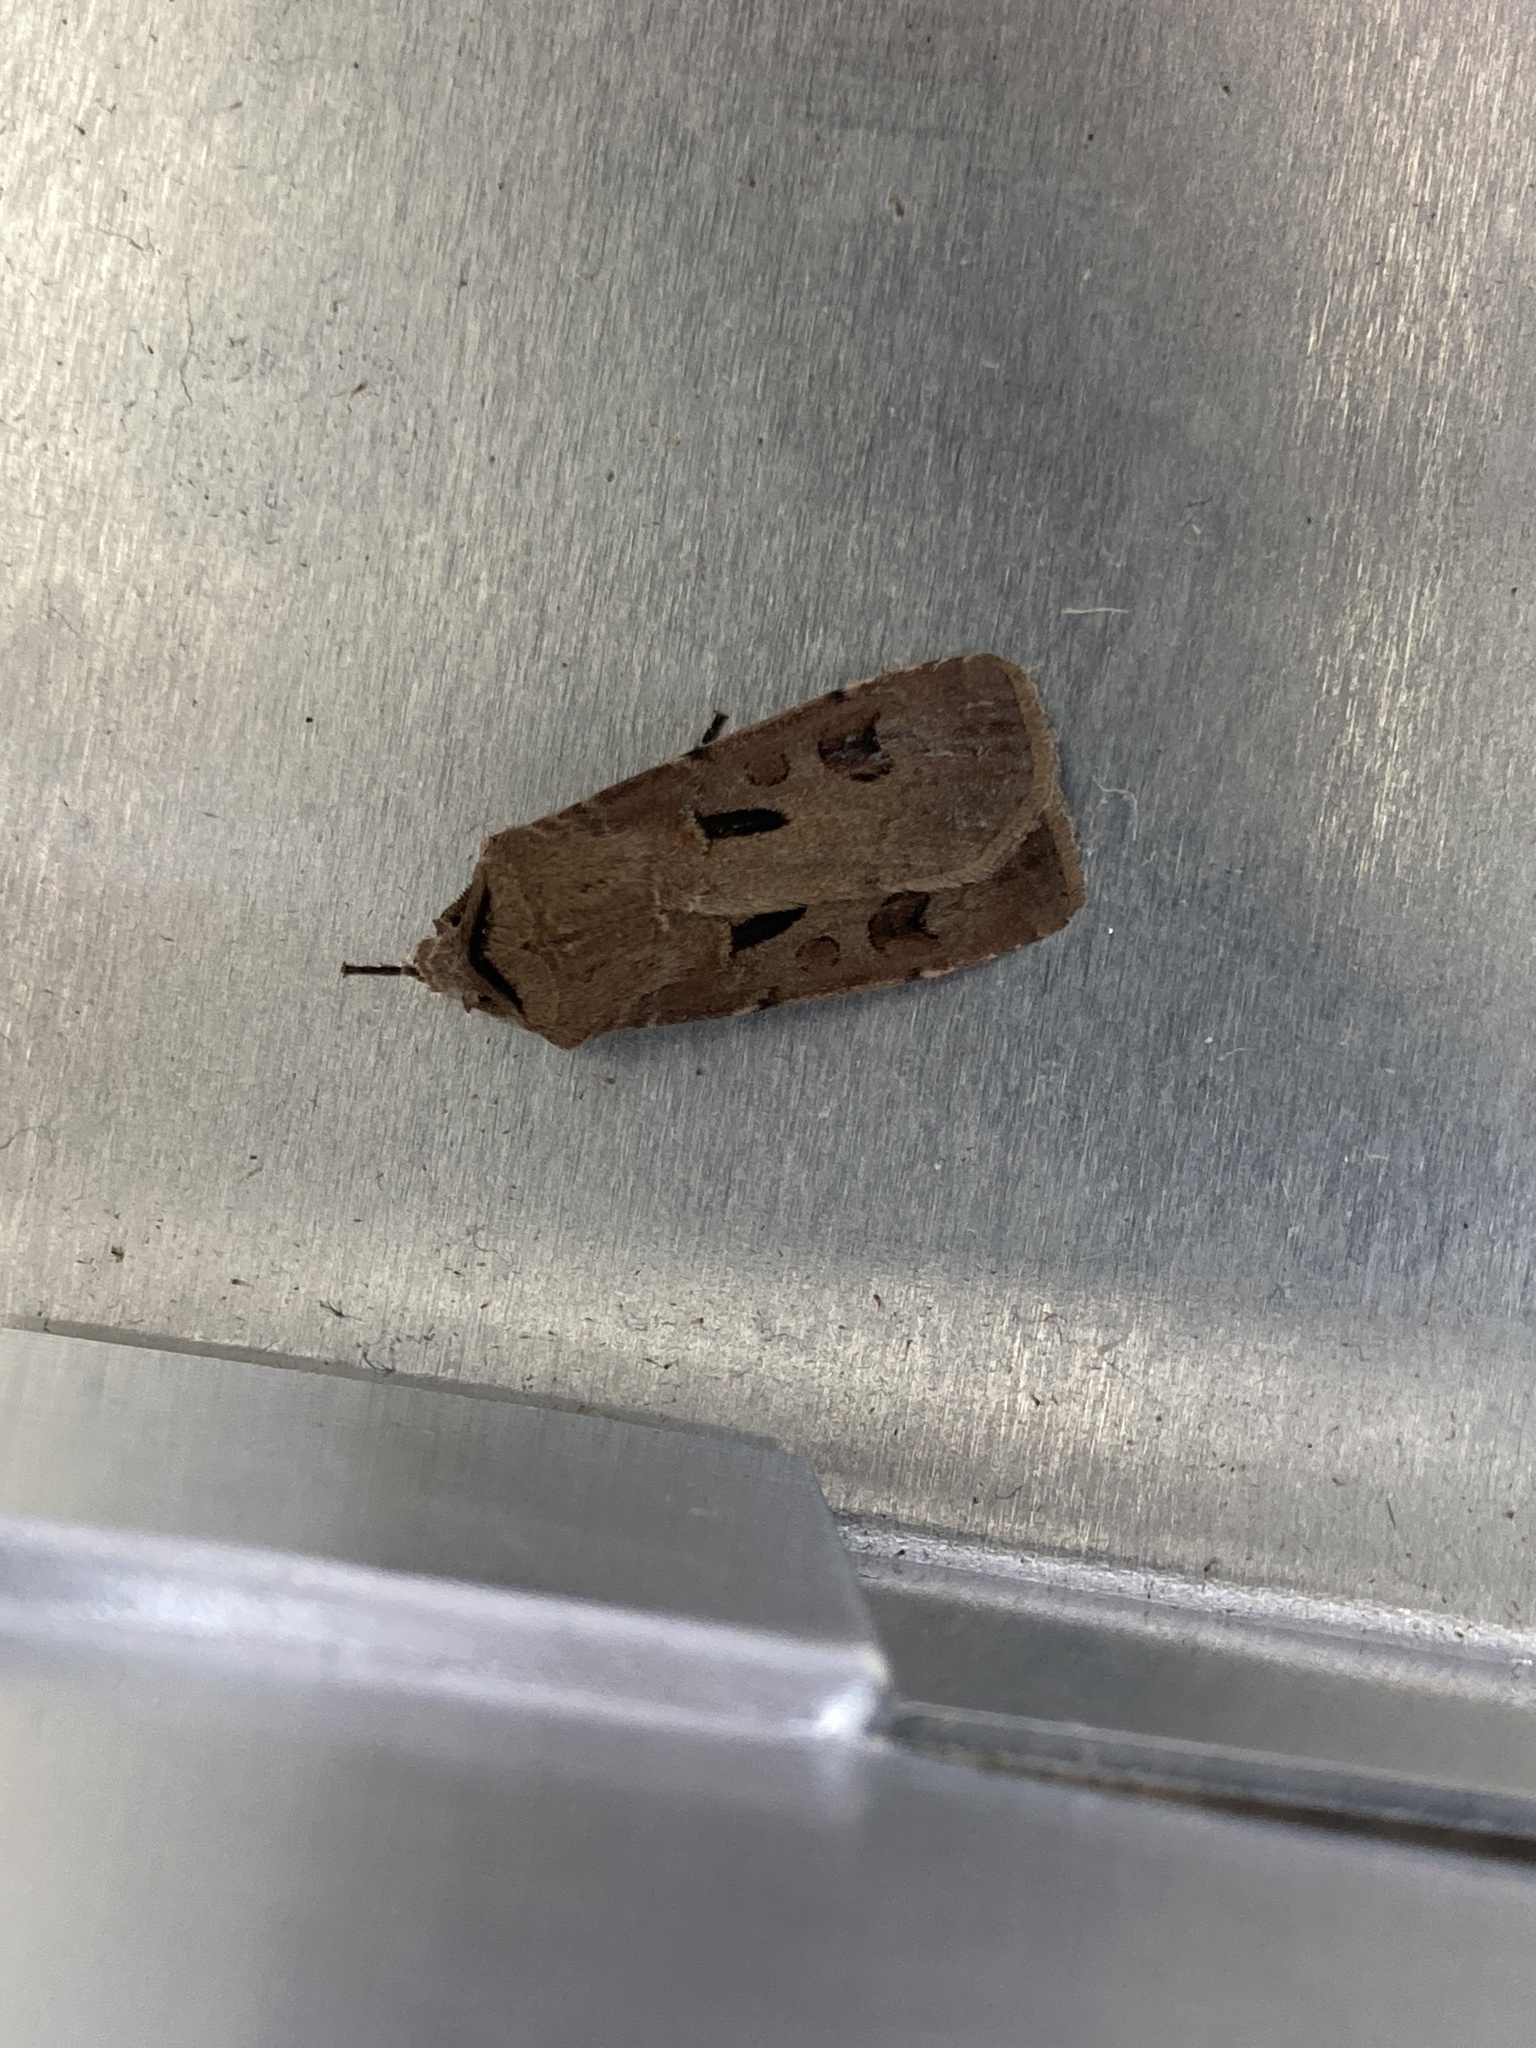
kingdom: Animalia
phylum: Arthropoda
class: Insecta
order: Lepidoptera
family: Noctuidae
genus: Agrotis
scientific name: Agrotis exclamationis
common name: Heart and dart
